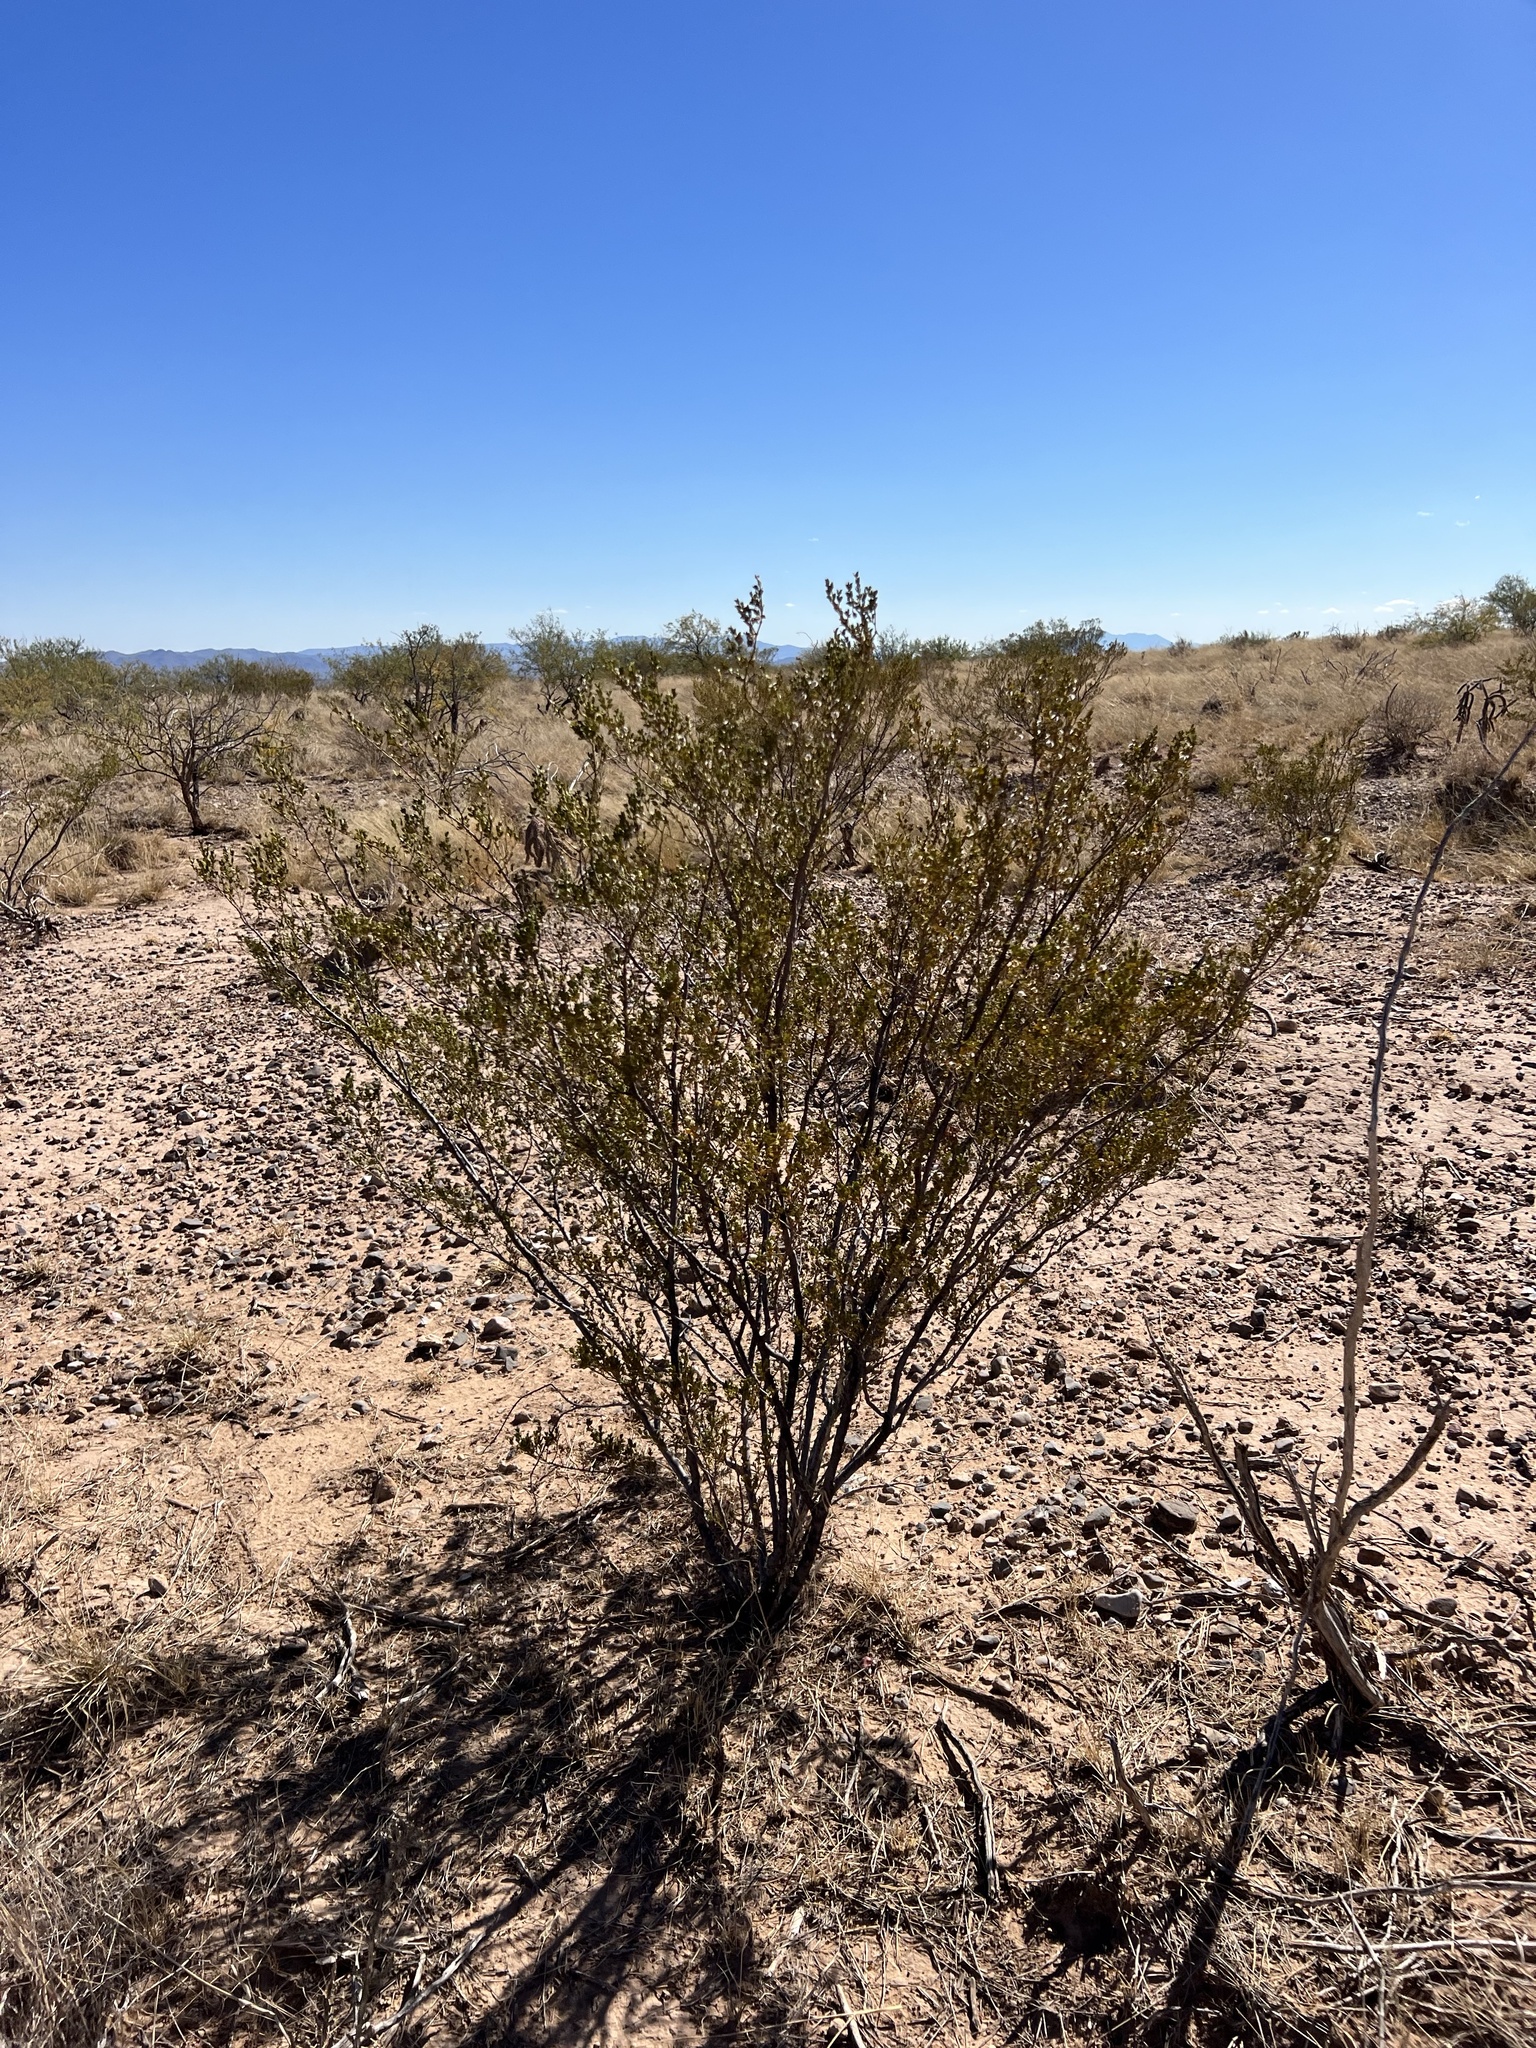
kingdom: Plantae
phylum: Tracheophyta
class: Magnoliopsida
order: Zygophyllales
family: Zygophyllaceae
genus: Larrea
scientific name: Larrea tridentata
